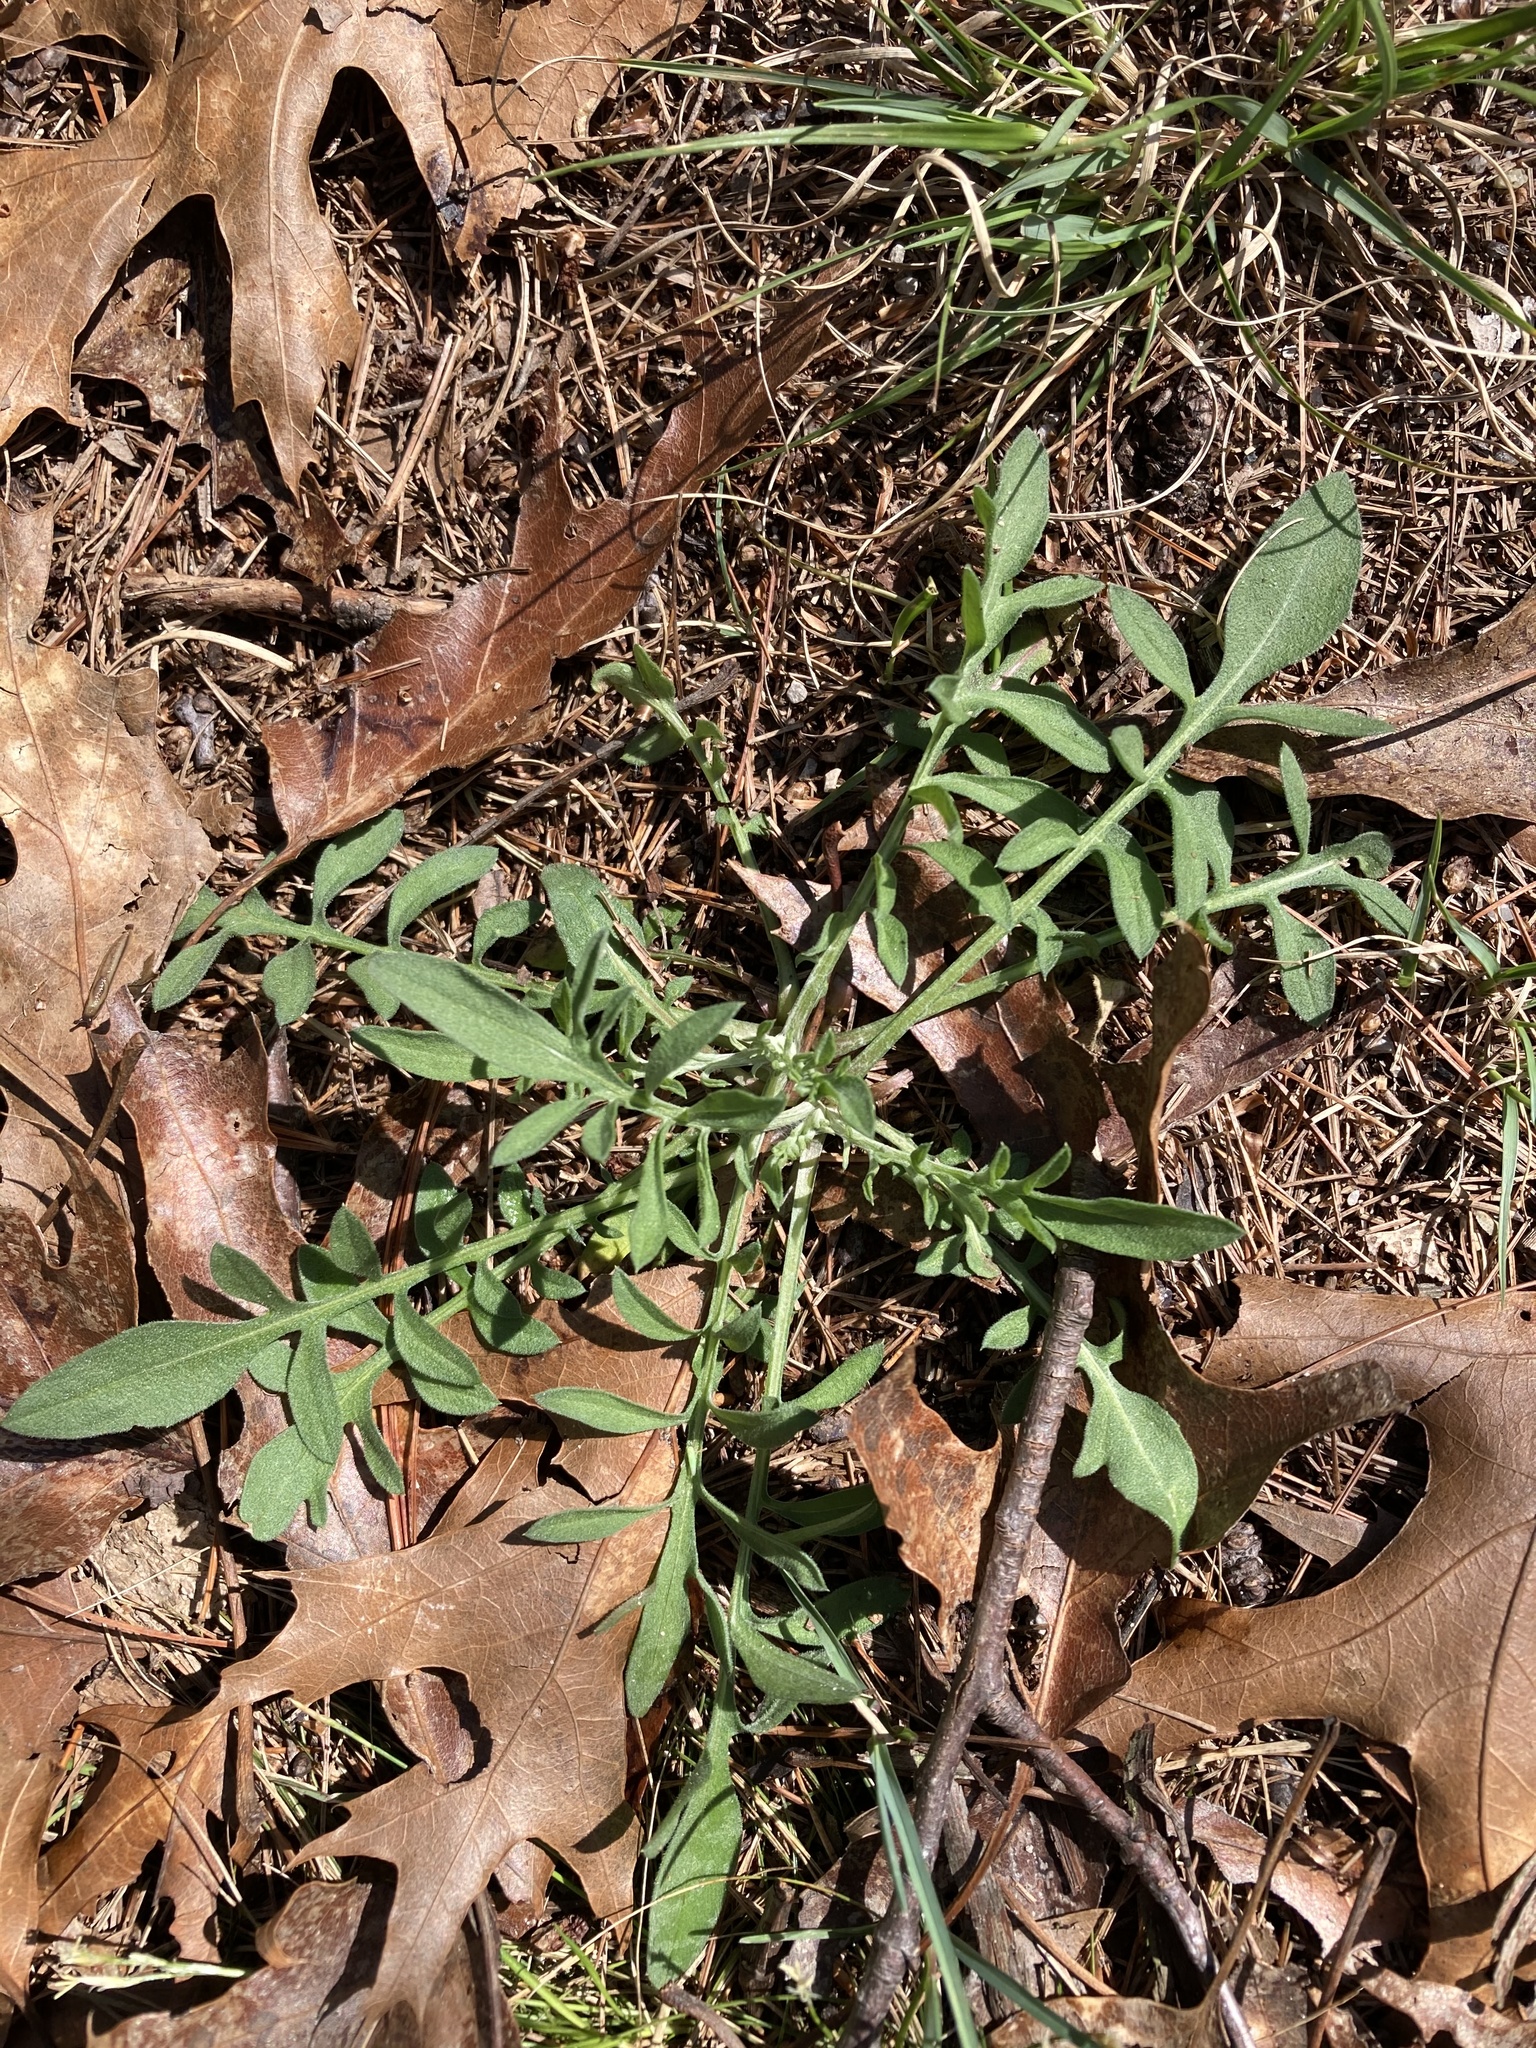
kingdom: Plantae
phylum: Tracheophyta
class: Magnoliopsida
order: Asterales
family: Asteraceae
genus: Centaurea
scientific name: Centaurea stoebe
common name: Spotted knapweed
